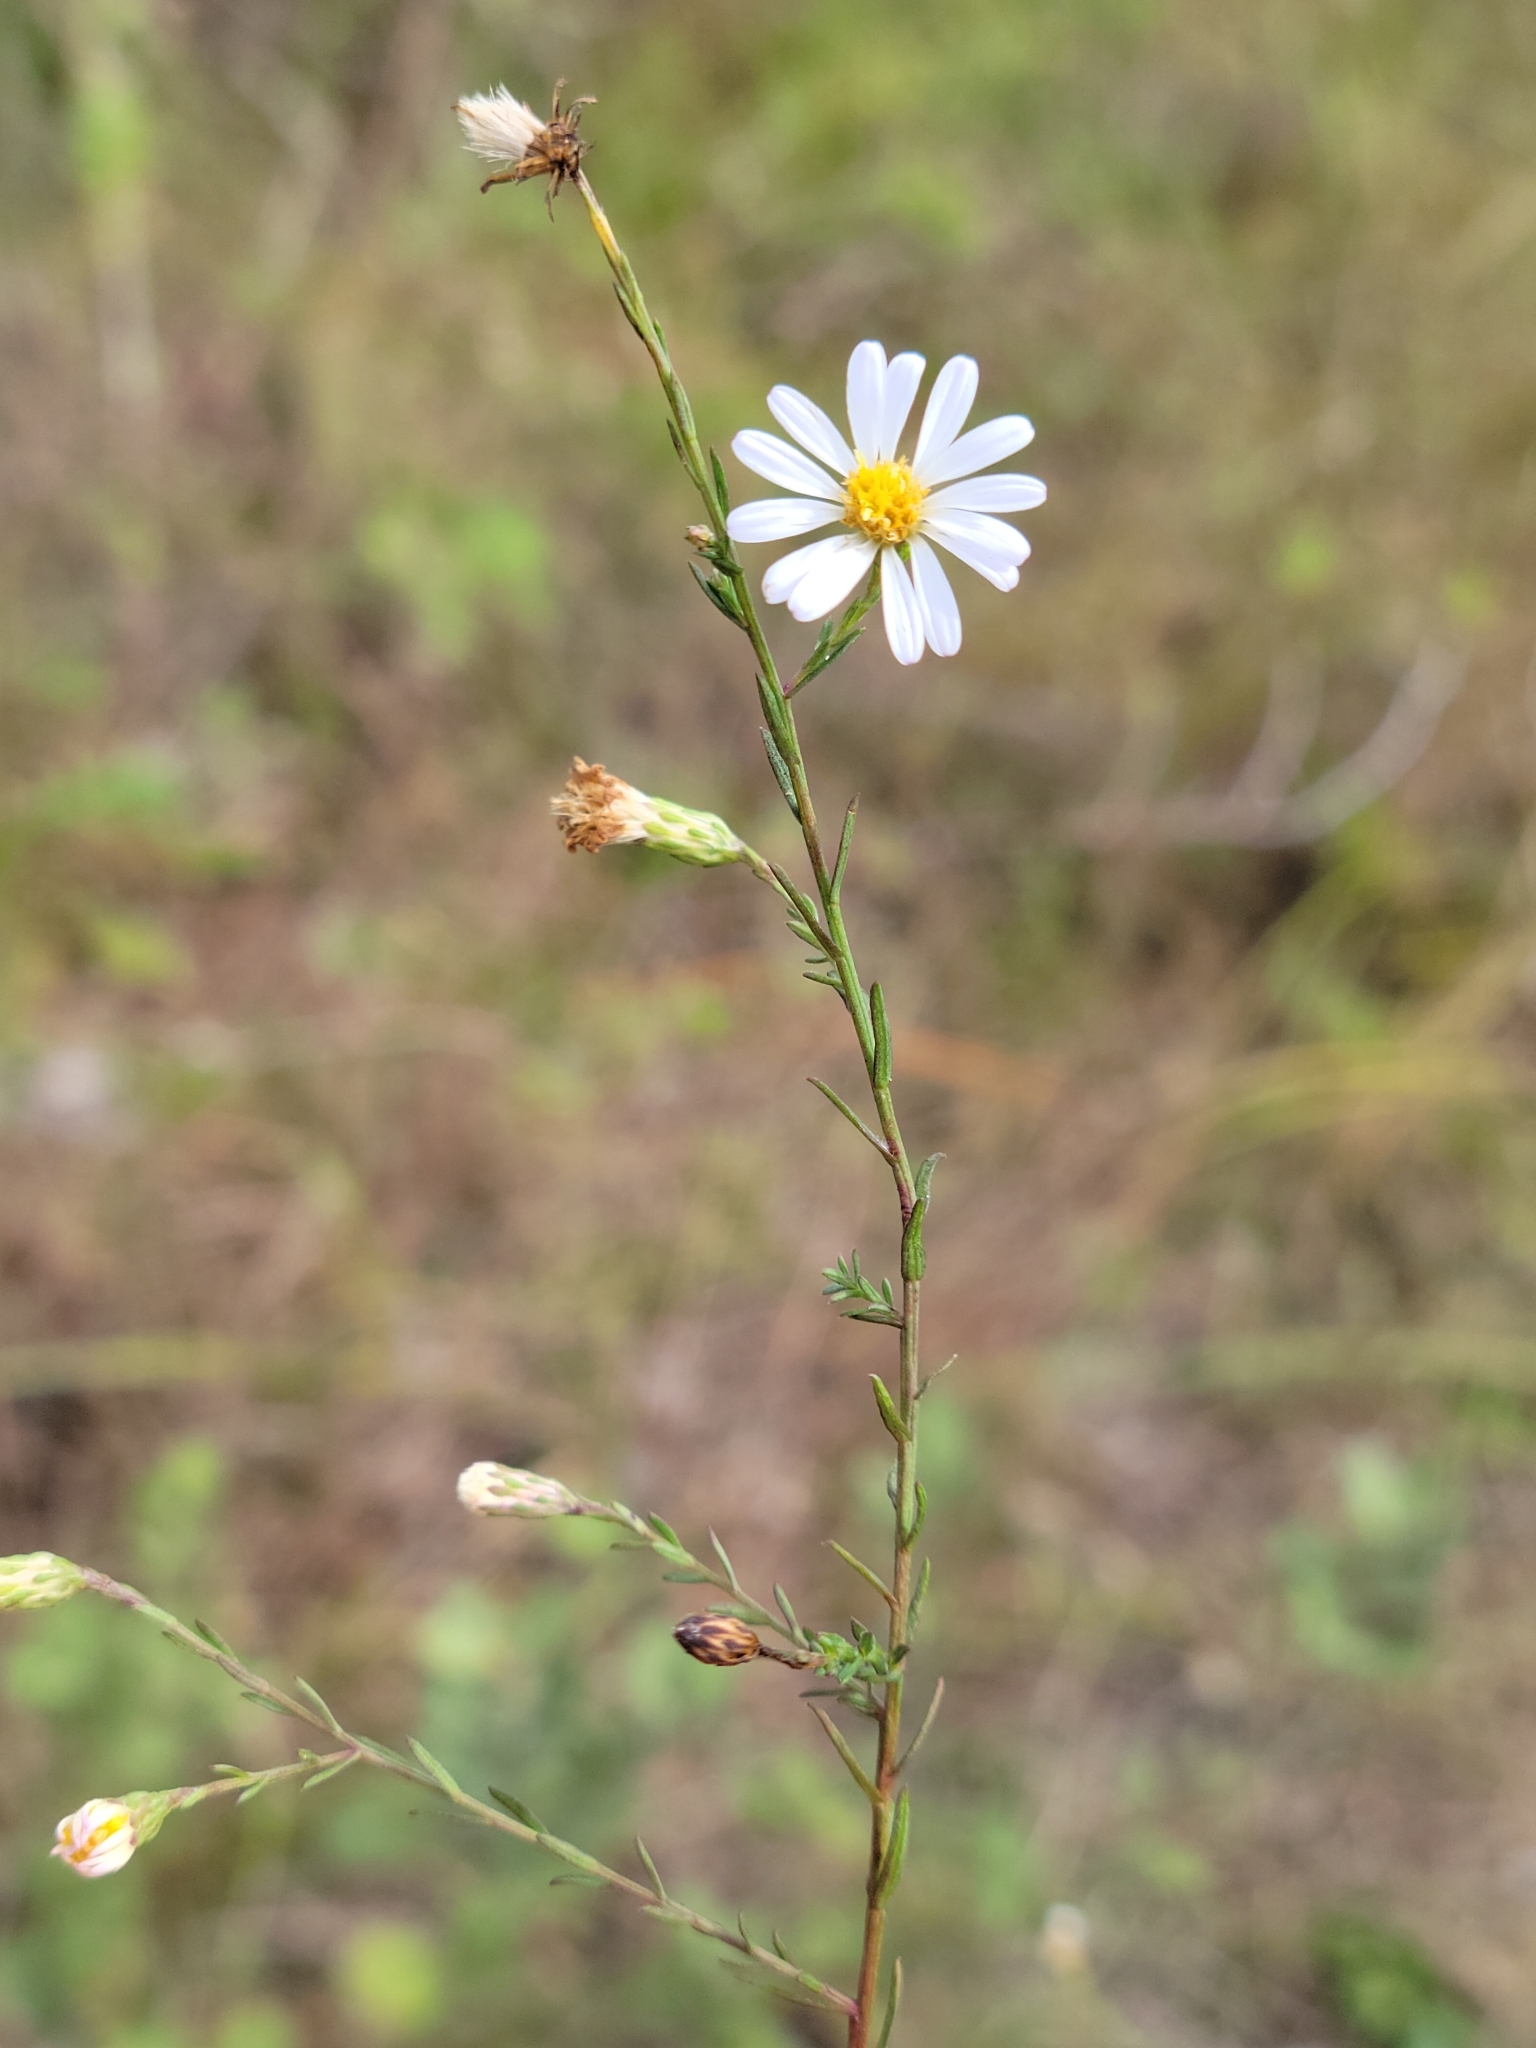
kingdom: Plantae
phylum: Tracheophyta
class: Magnoliopsida
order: Asterales
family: Asteraceae
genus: Symphyotrichum
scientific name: Symphyotrichum dumosum
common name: Bushy aster
